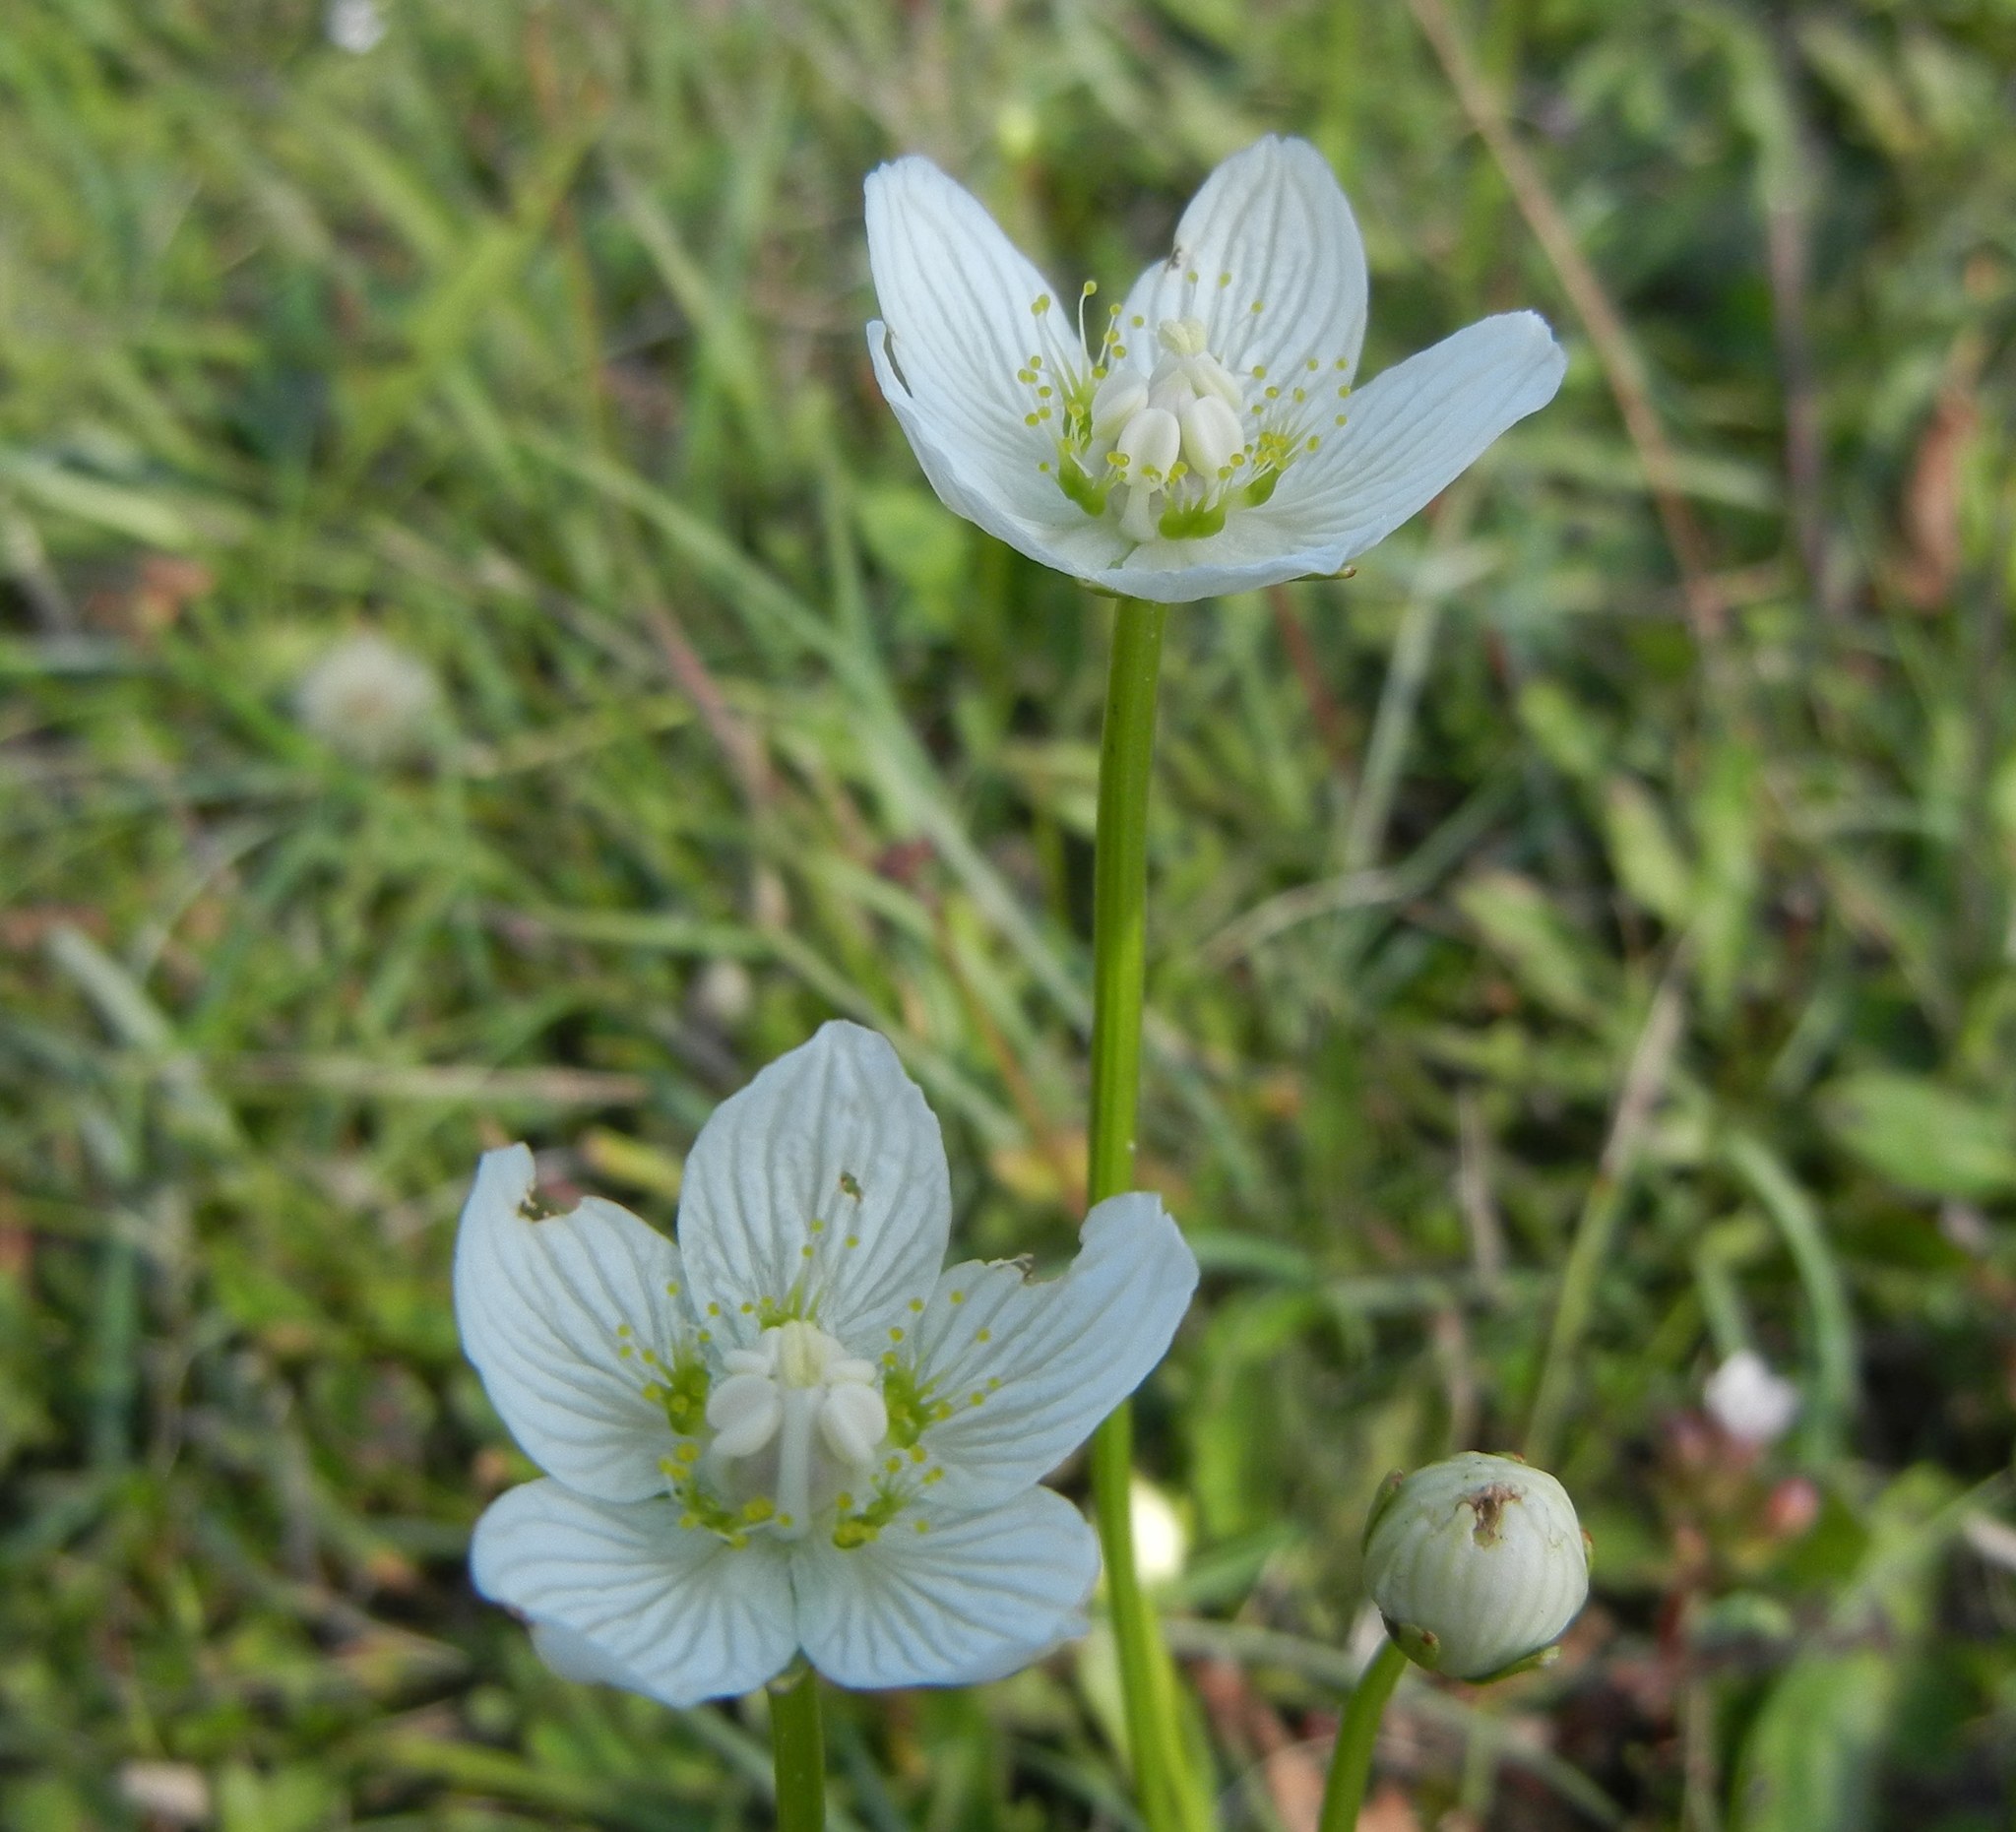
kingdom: Plantae
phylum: Tracheophyta
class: Magnoliopsida
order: Celastrales
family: Parnassiaceae
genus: Parnassia
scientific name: Parnassia palustris
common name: Grass-of-parnassus
